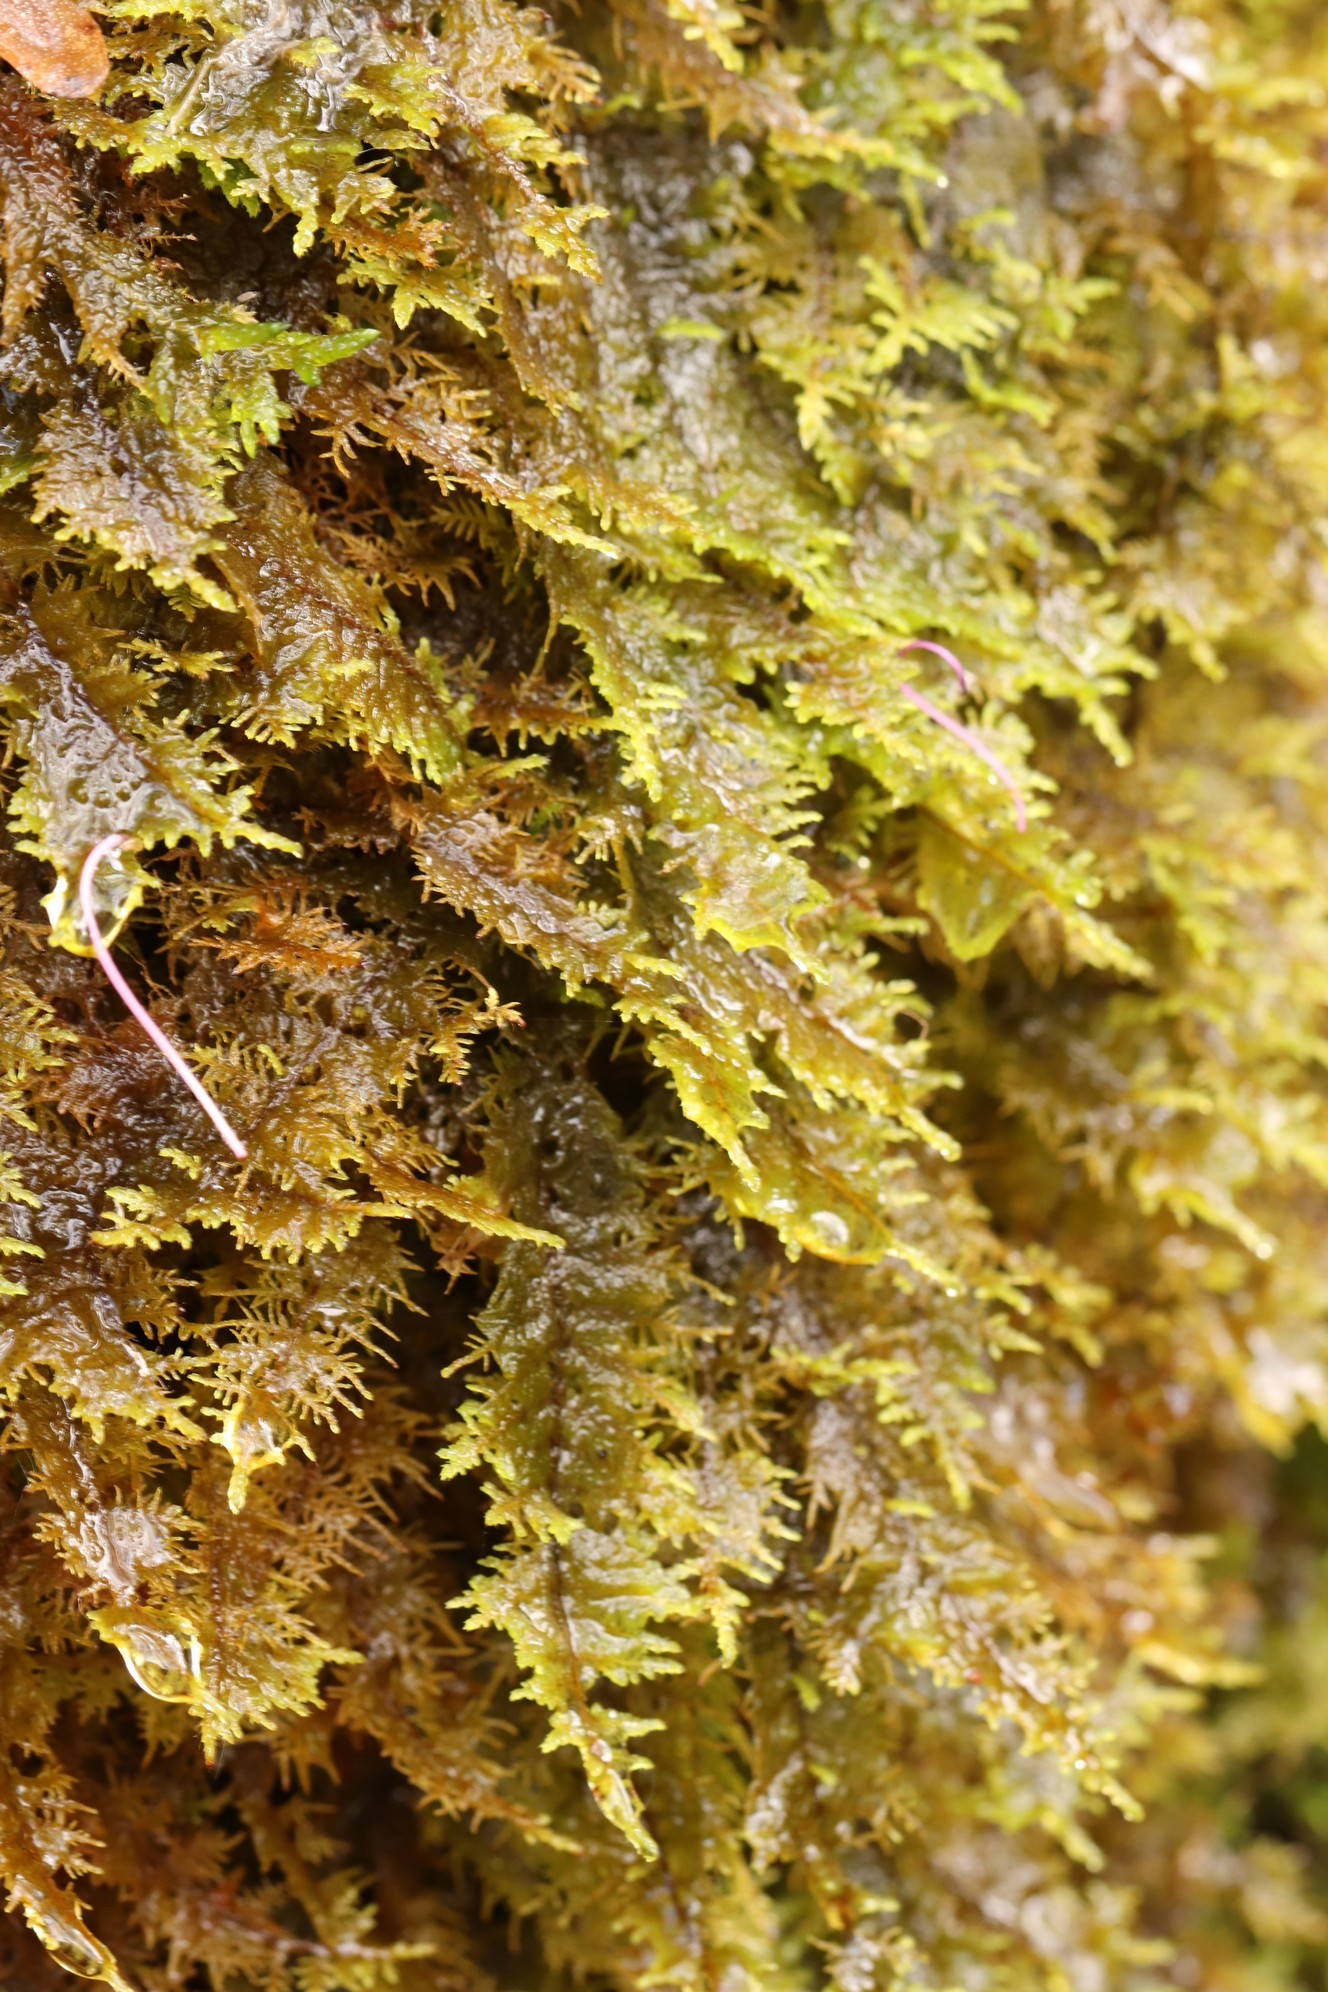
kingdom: Plantae
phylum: Bryophyta
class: Bryopsida
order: Hypnales
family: Hylocomiaceae
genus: Hylocomium
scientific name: Hylocomium splendens
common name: Stairstep moss
